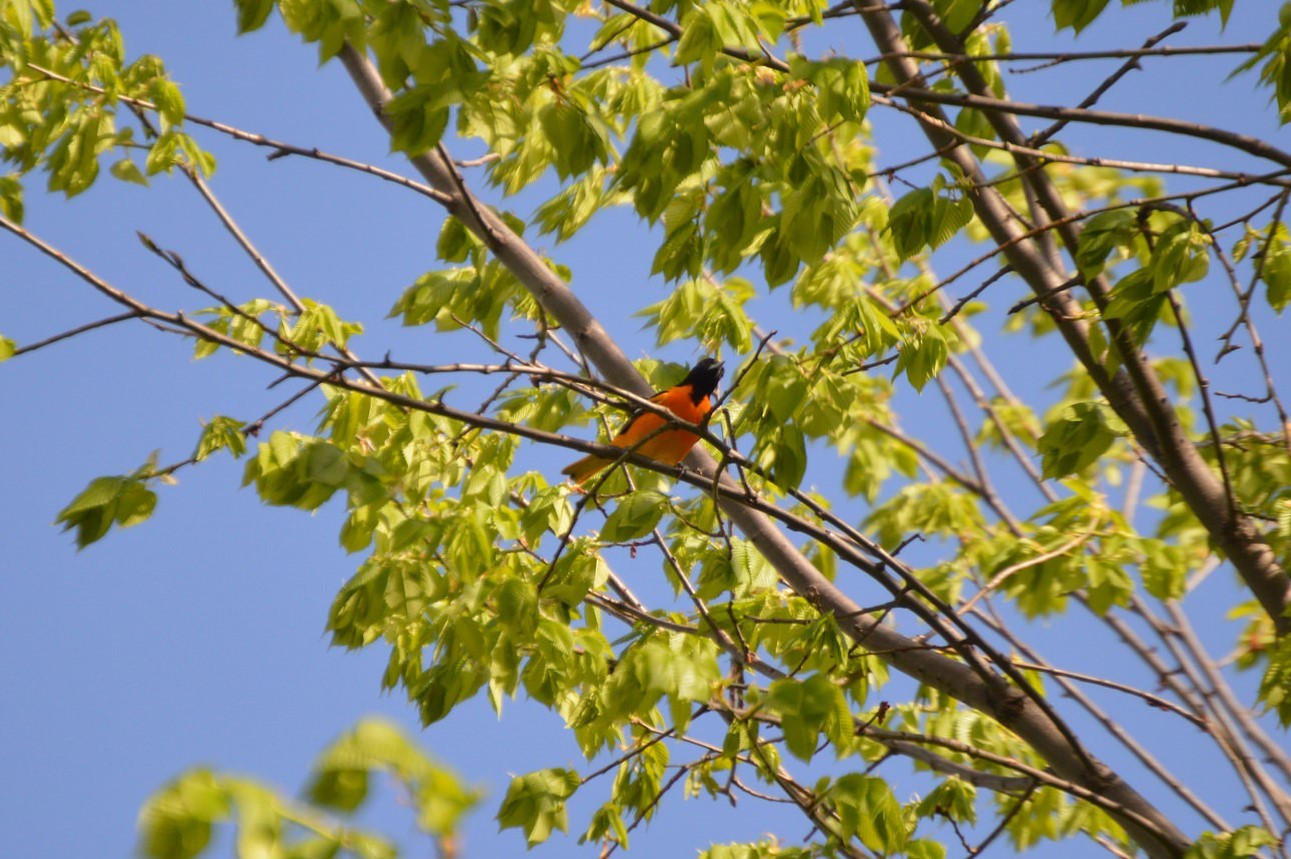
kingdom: Animalia
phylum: Chordata
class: Aves
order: Passeriformes
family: Icteridae
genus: Icterus
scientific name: Icterus galbula
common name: Baltimore oriole
